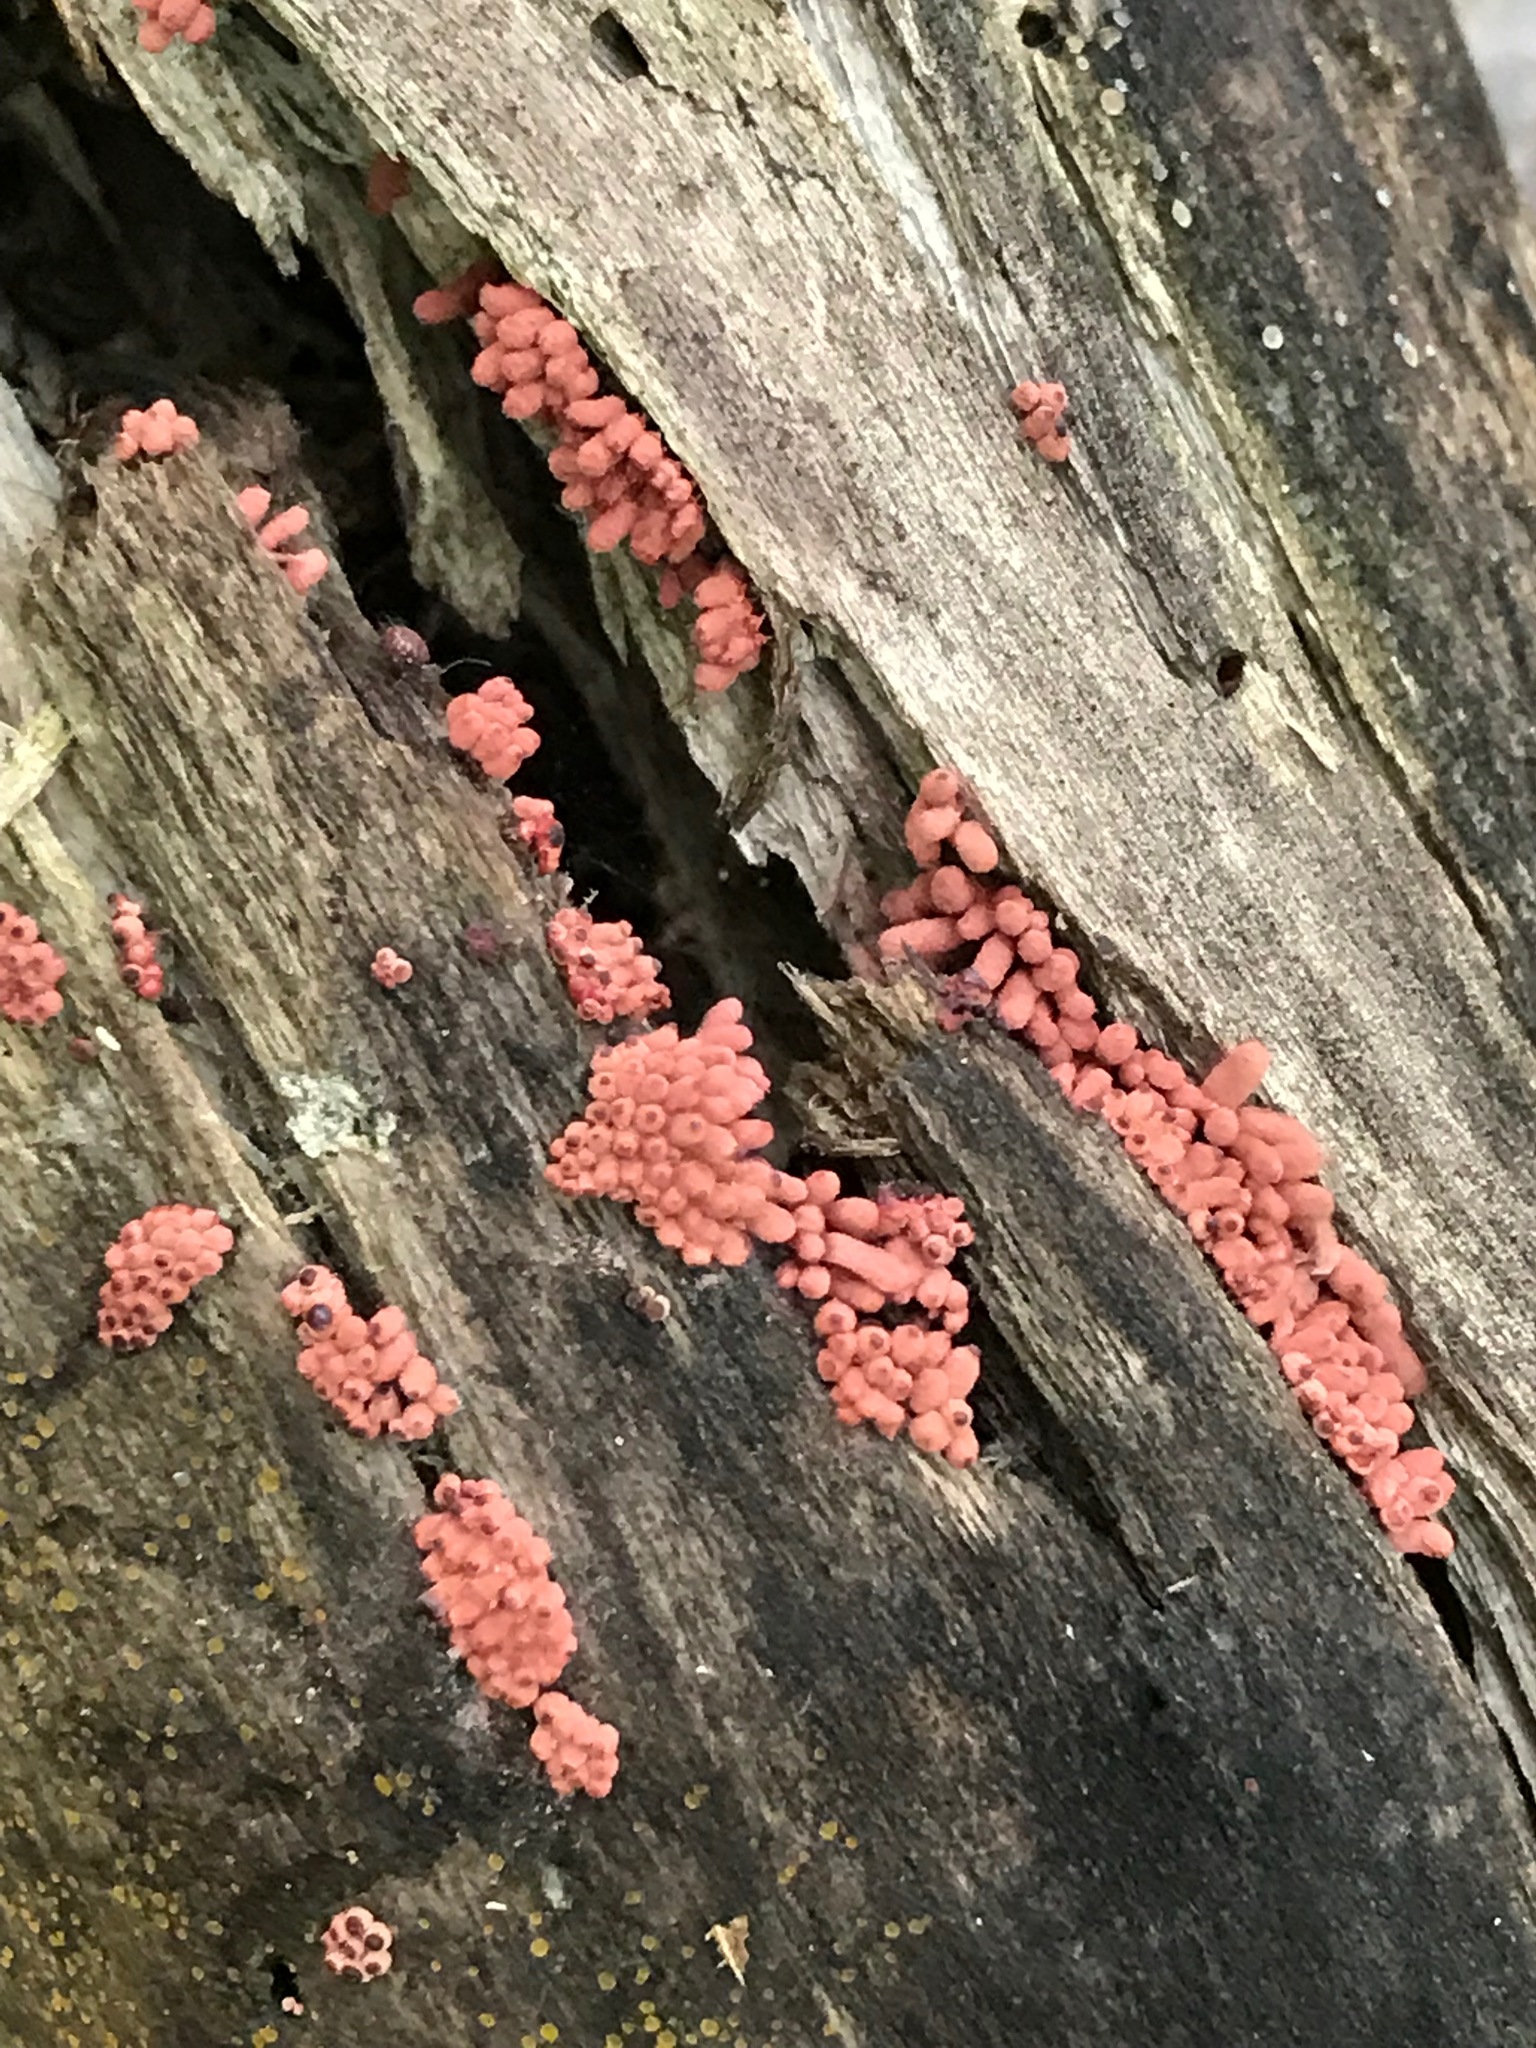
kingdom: Protozoa
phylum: Mycetozoa
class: Myxomycetes
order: Trichiales
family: Arcyriaceae
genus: Arcyria
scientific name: Arcyria denudata
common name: Carnival candy slime mold
